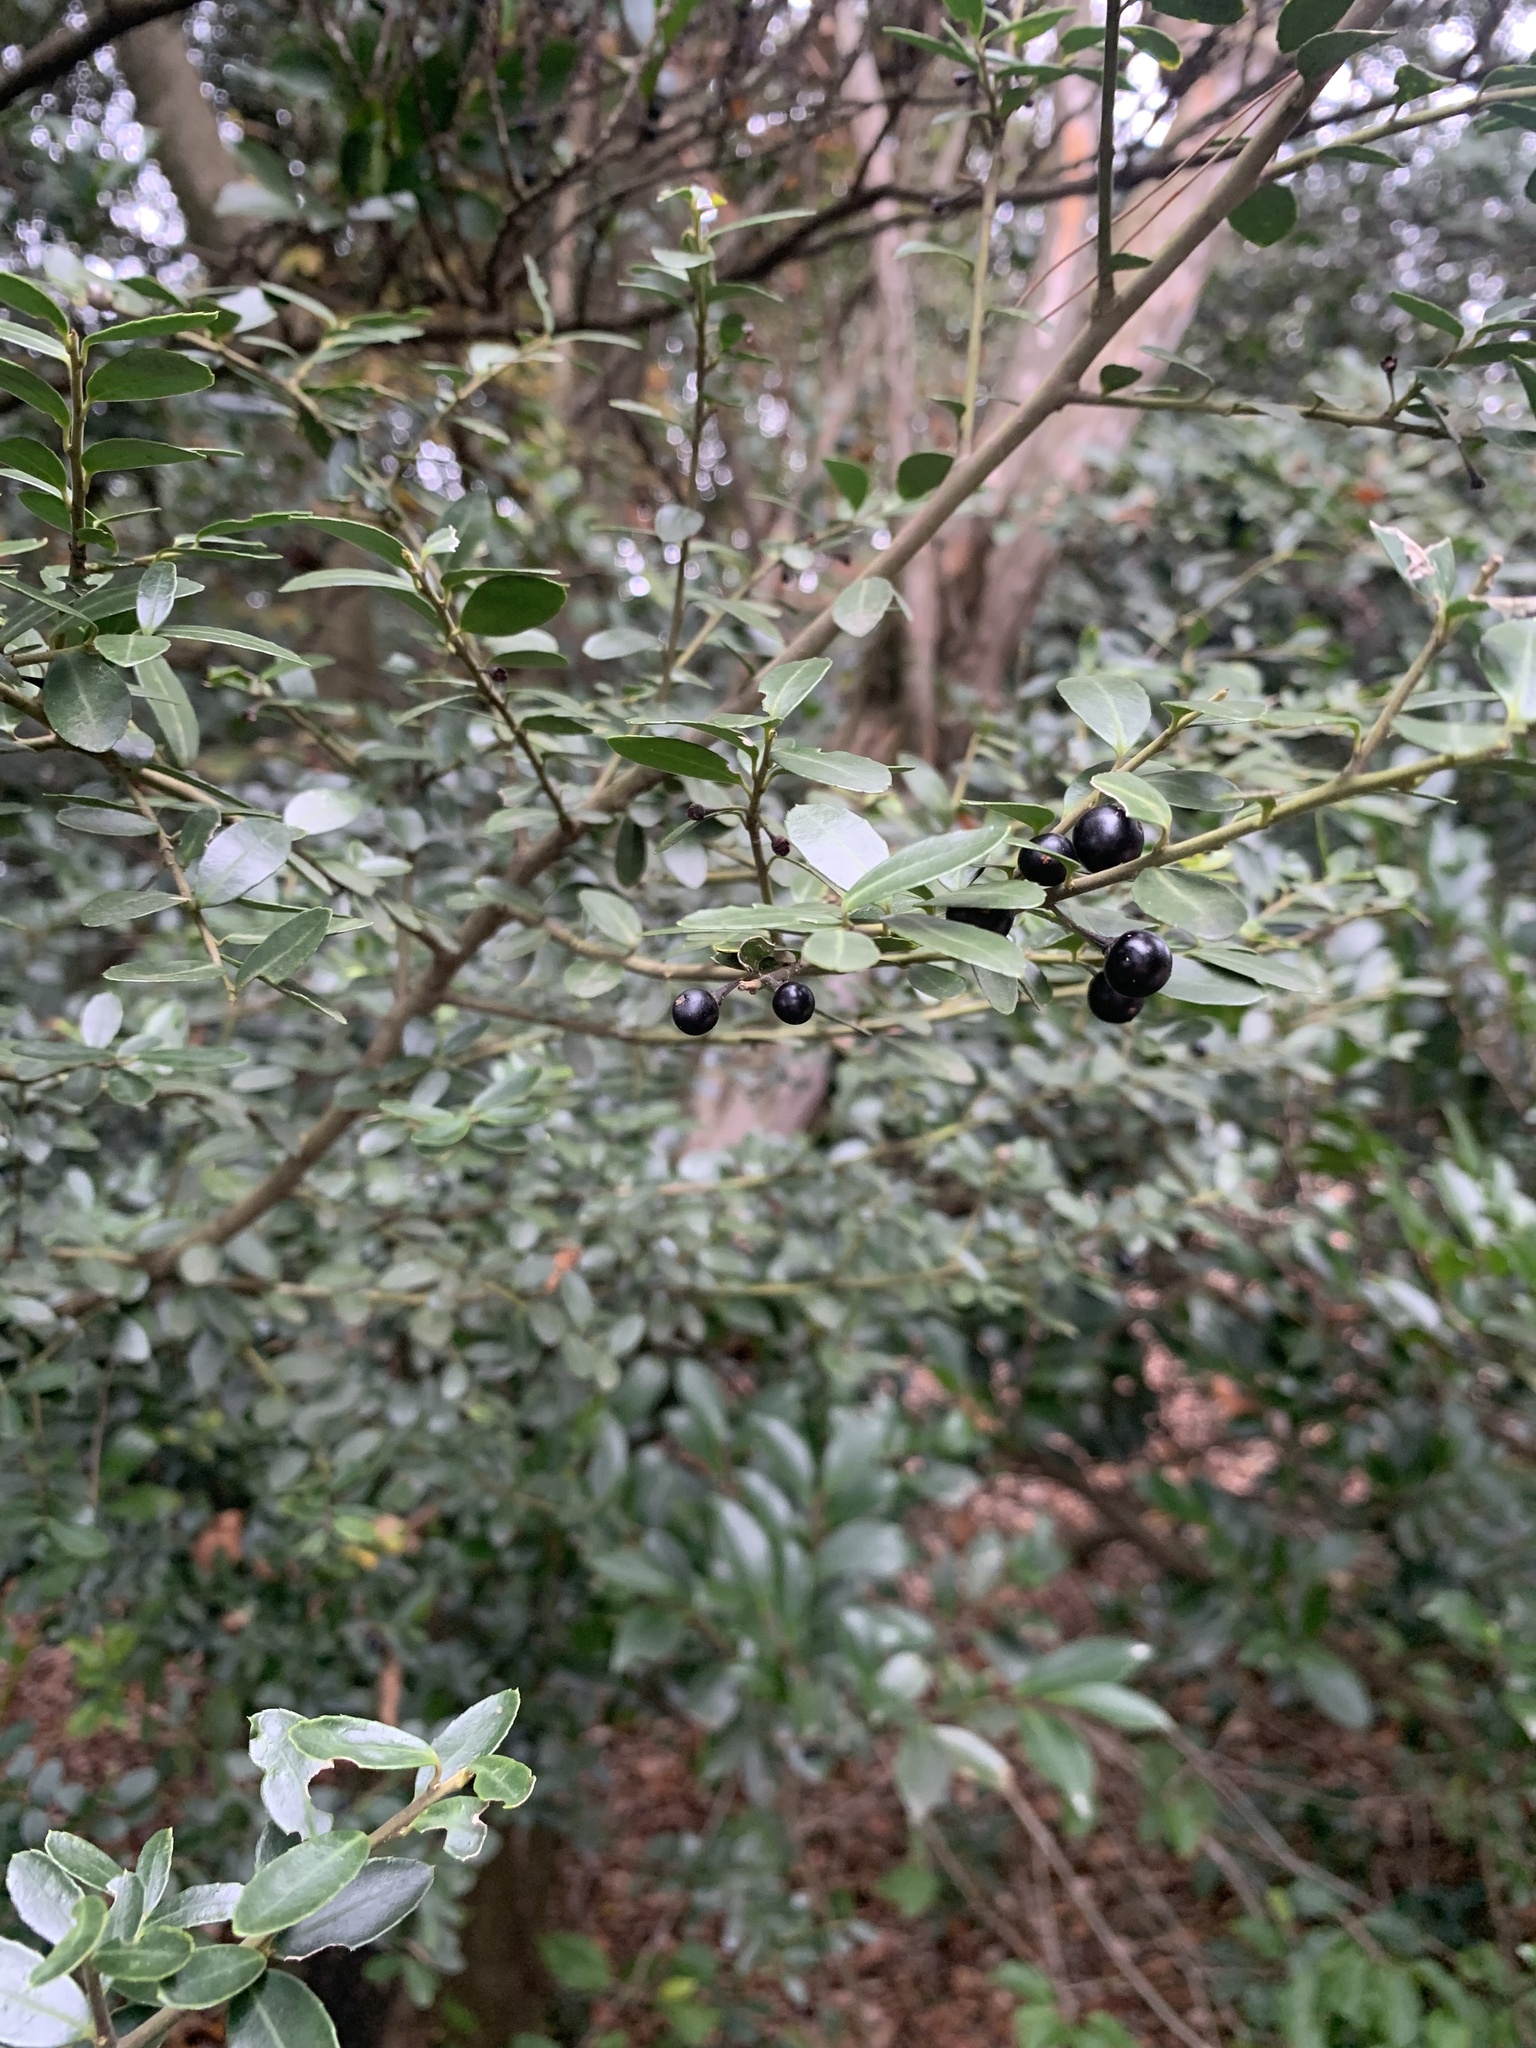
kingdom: Plantae
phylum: Tracheophyta
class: Magnoliopsida
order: Aquifoliales
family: Aquifoliaceae
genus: Ilex
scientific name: Ilex crenata
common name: Japanese holly
